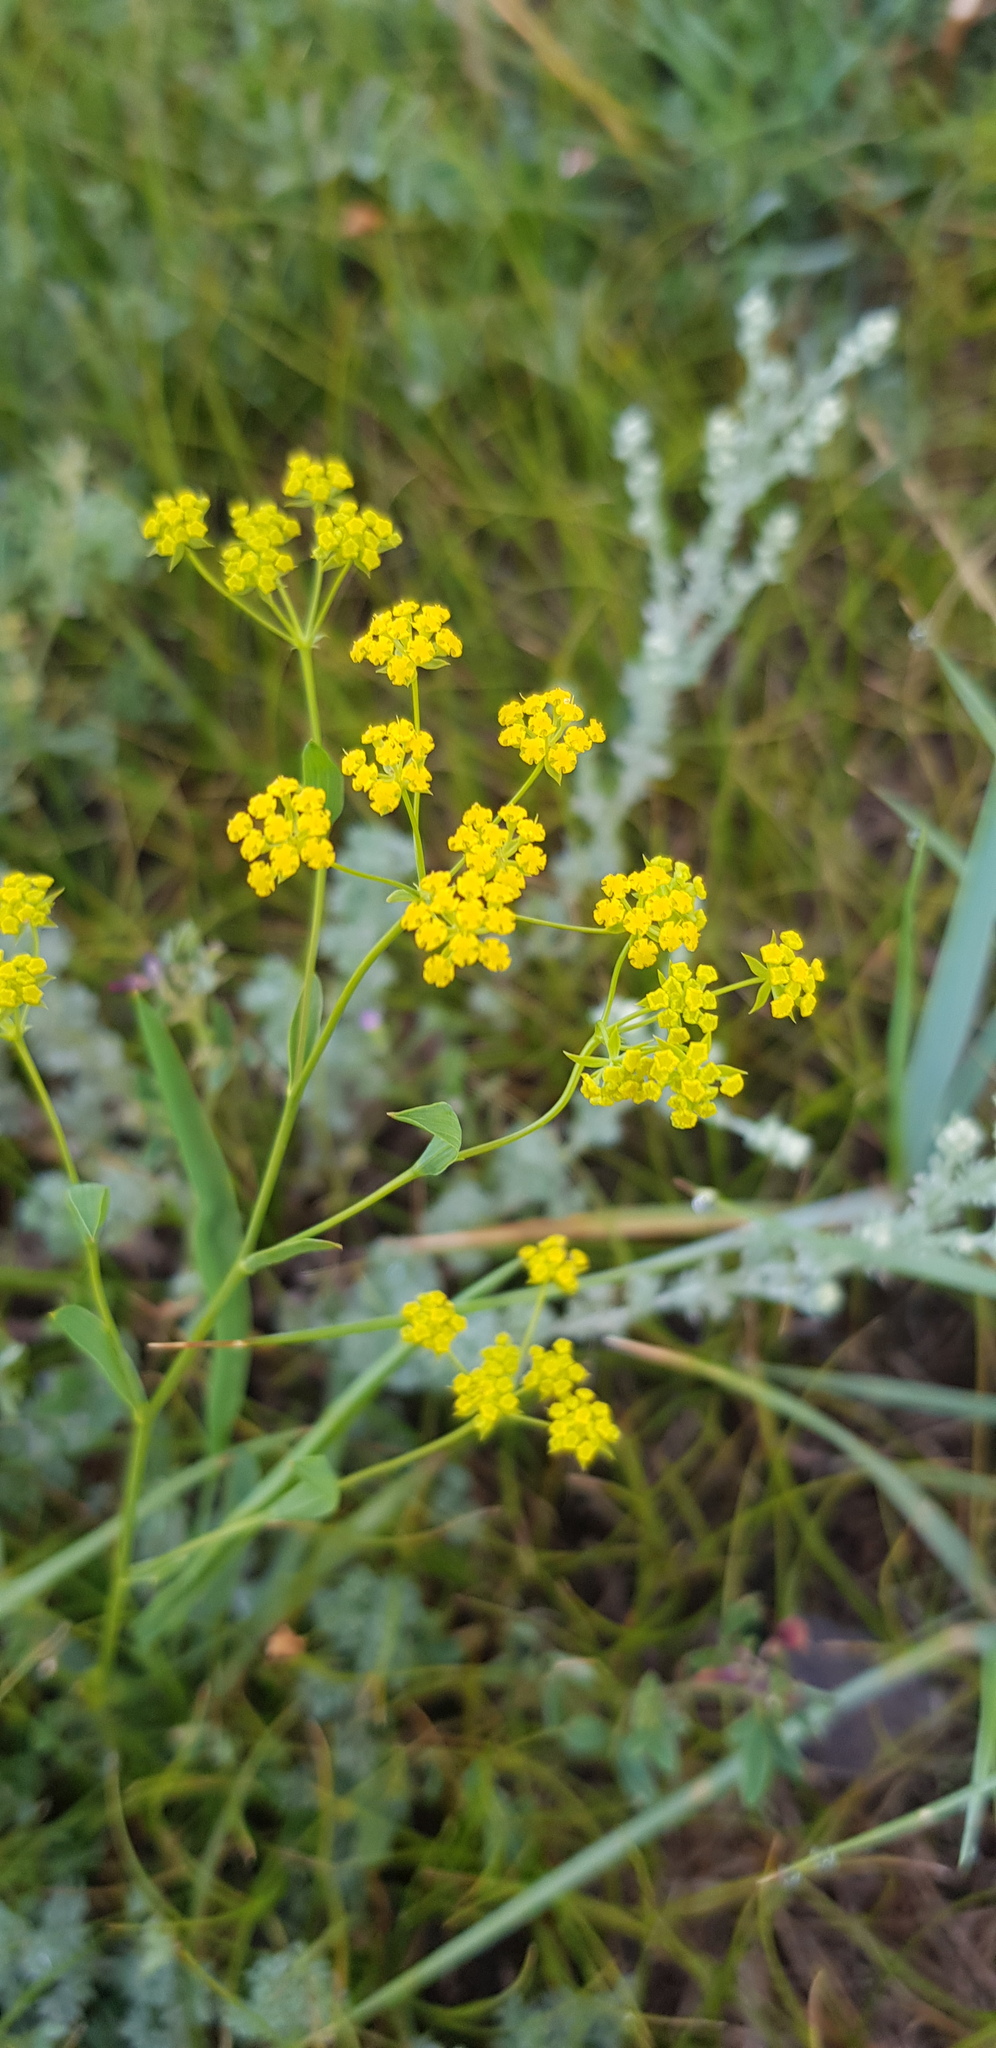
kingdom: Plantae
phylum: Tracheophyta
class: Magnoliopsida
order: Apiales
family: Apiaceae
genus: Bupleurum
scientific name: Bupleurum sibiricum
